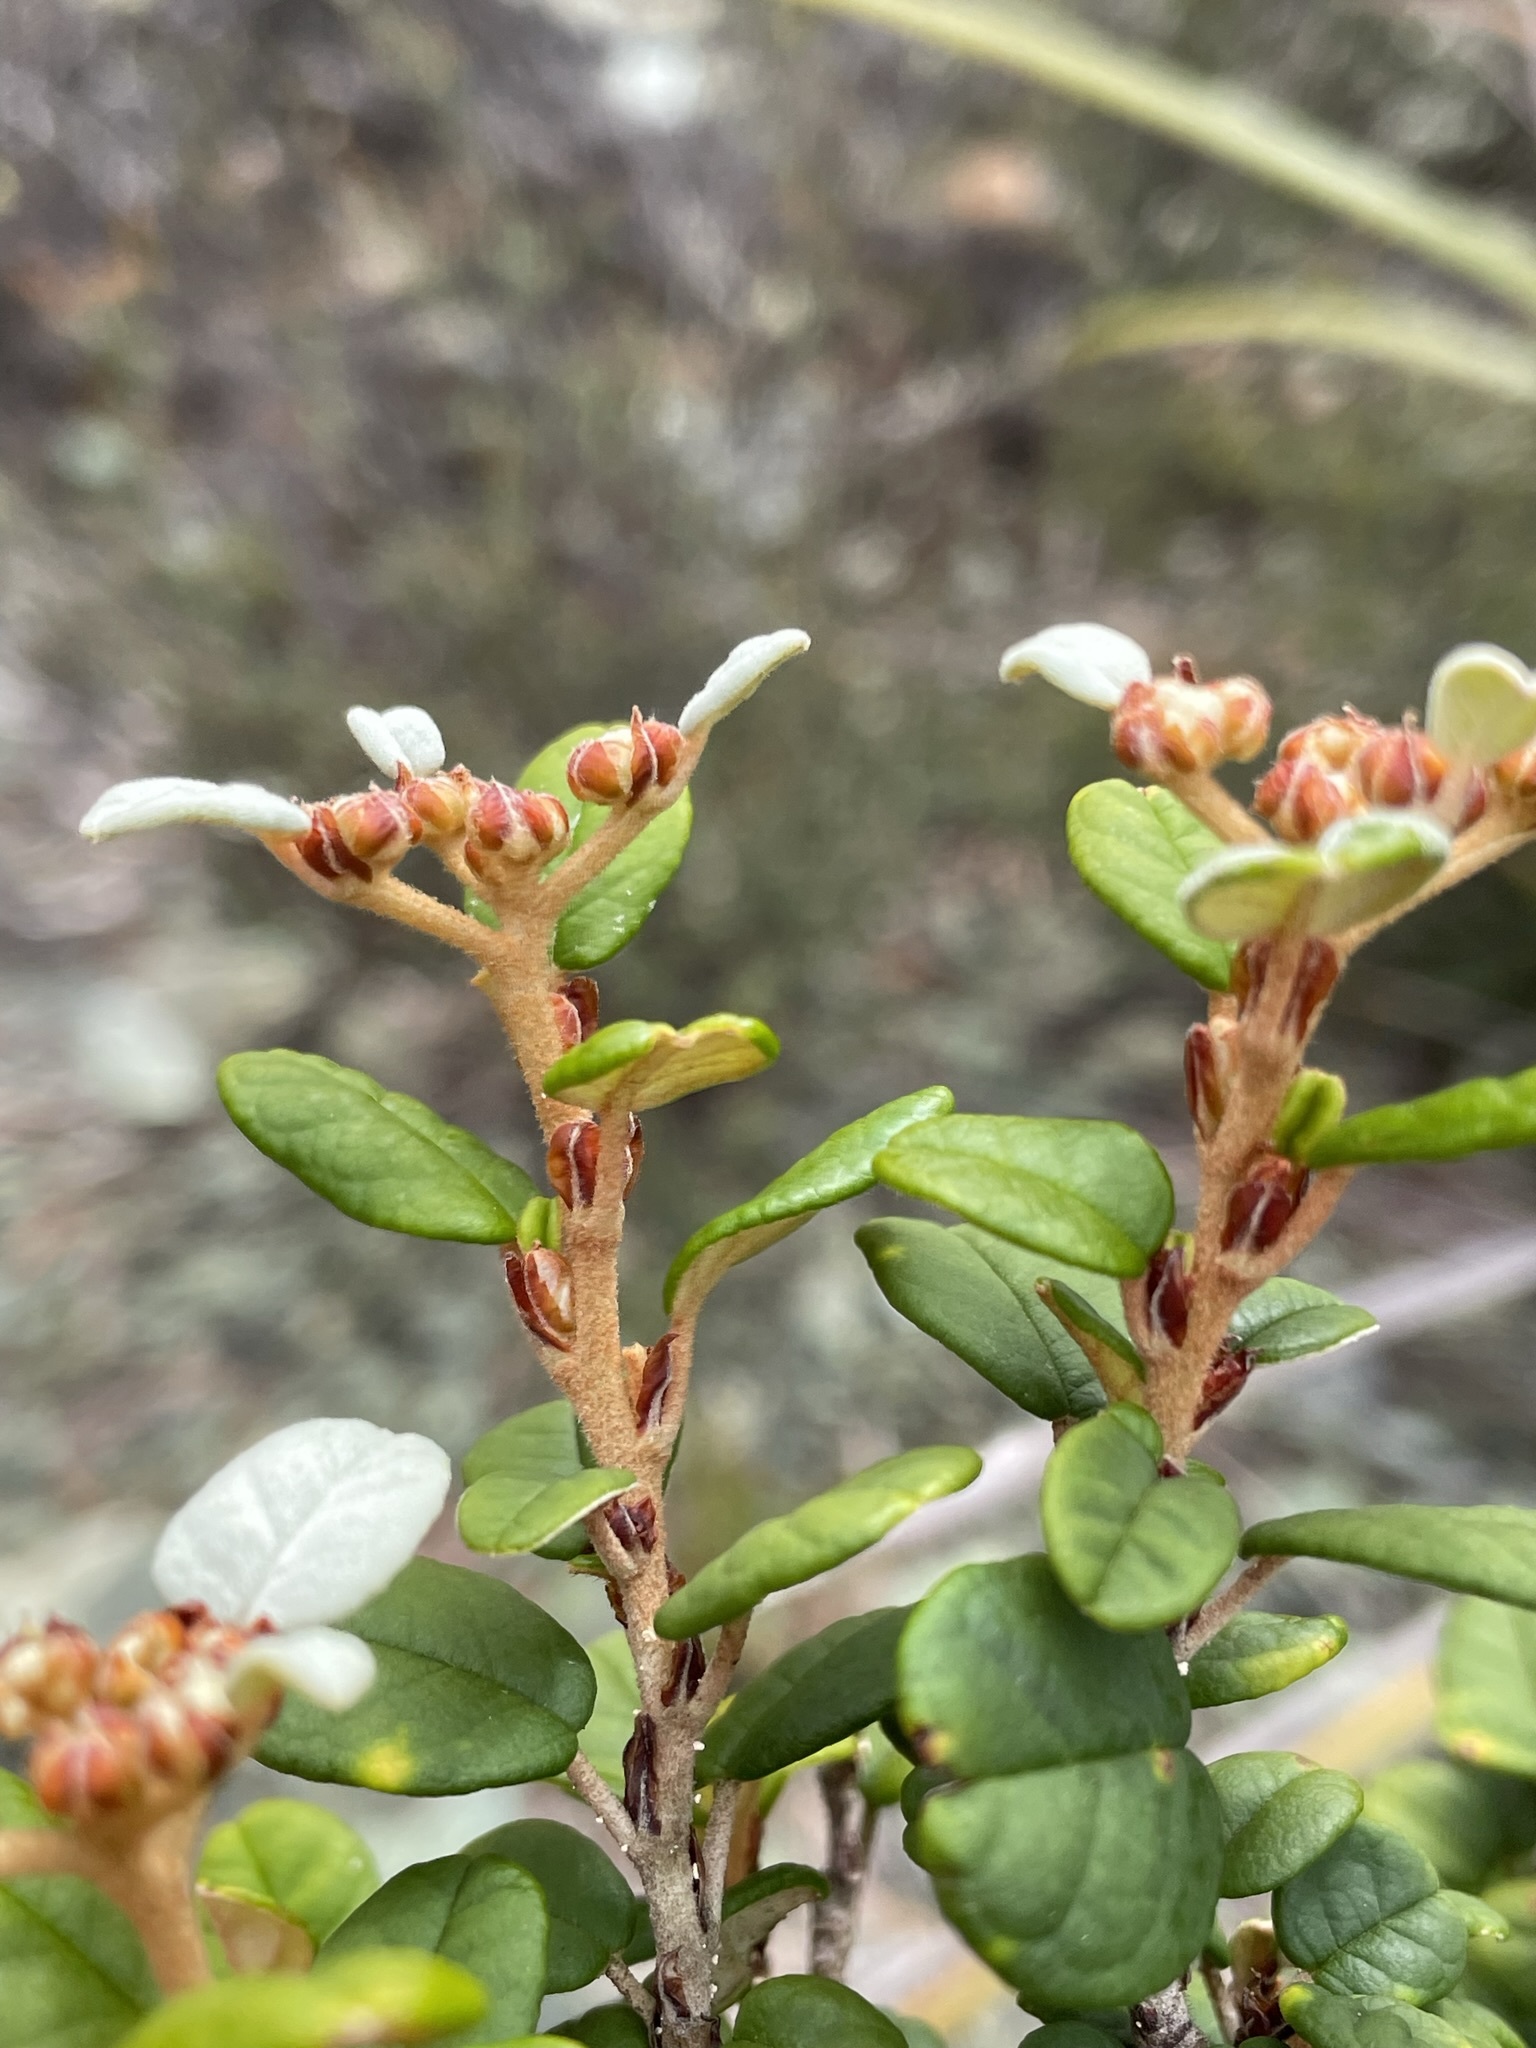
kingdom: Plantae
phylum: Tracheophyta
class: Magnoliopsida
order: Rosales
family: Rhamnaceae
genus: Spyridium
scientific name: Spyridium gunnii
